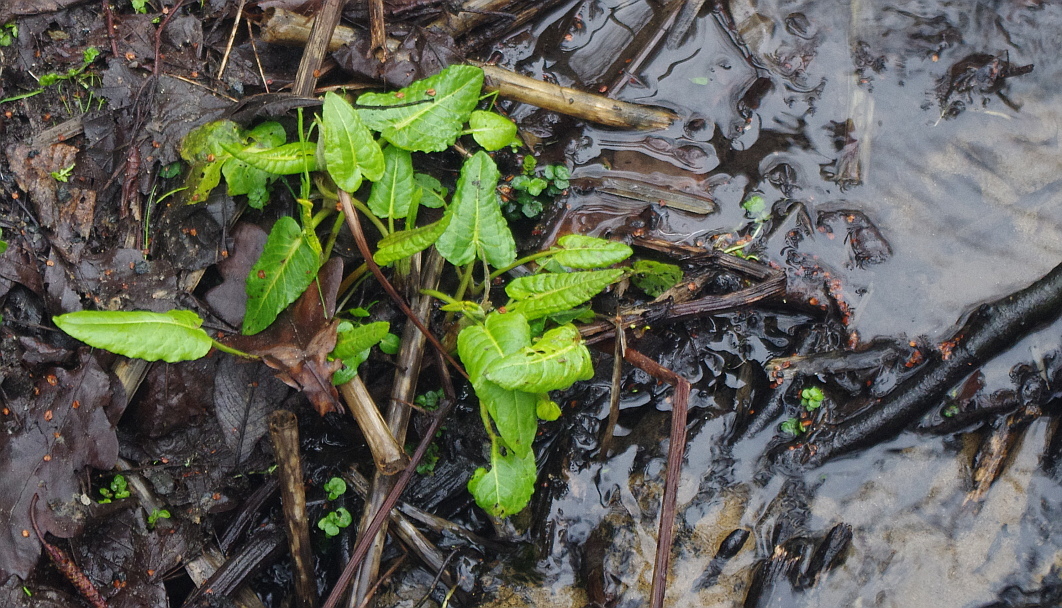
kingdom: Plantae
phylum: Tracheophyta
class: Magnoliopsida
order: Caryophyllales
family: Polygonaceae
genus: Rumex
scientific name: Rumex obtusifolius
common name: Bitter dock
